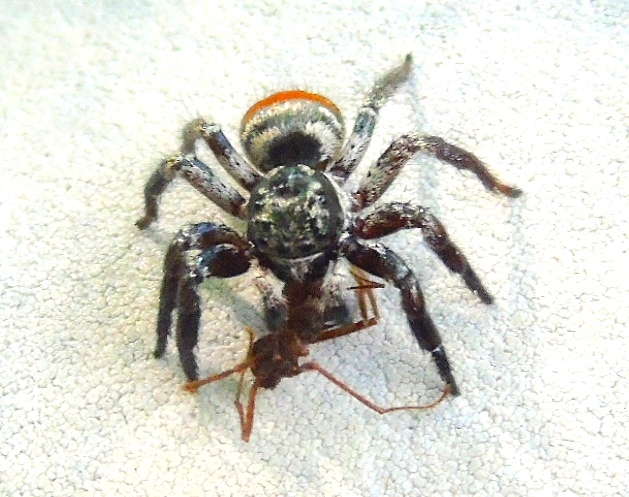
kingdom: Animalia
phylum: Arthropoda
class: Arachnida
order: Araneae
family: Salticidae
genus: Corythalia
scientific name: Corythalia
